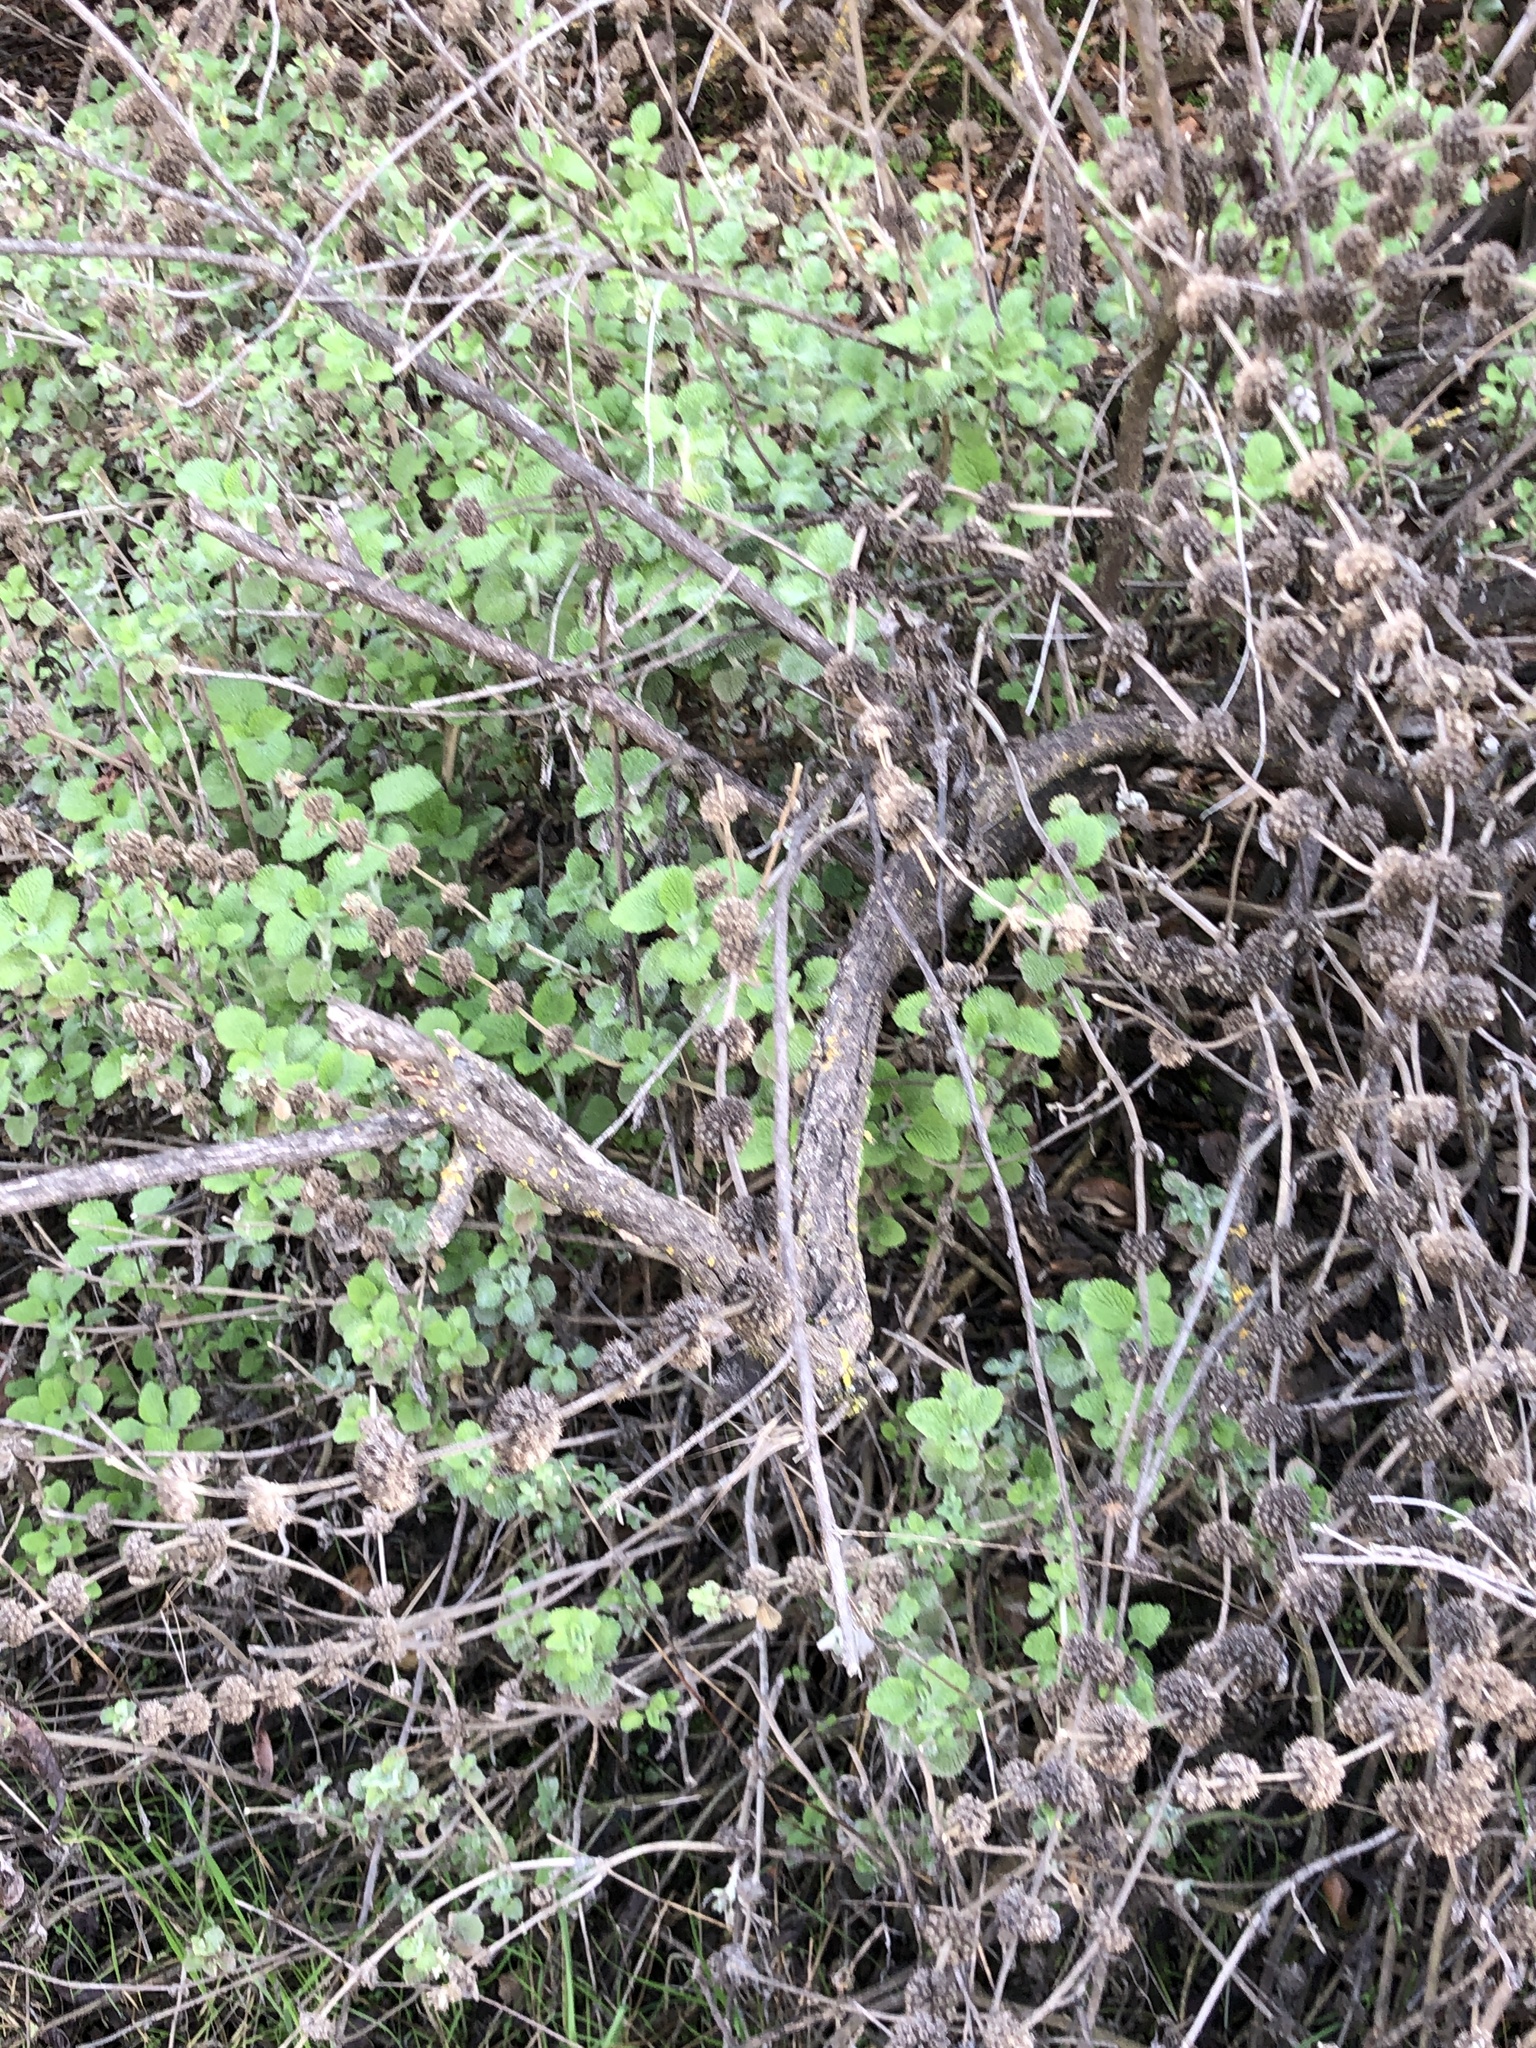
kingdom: Plantae
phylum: Tracheophyta
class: Magnoliopsida
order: Lamiales
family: Lamiaceae
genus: Marrubium
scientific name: Marrubium vulgare
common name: Horehound
